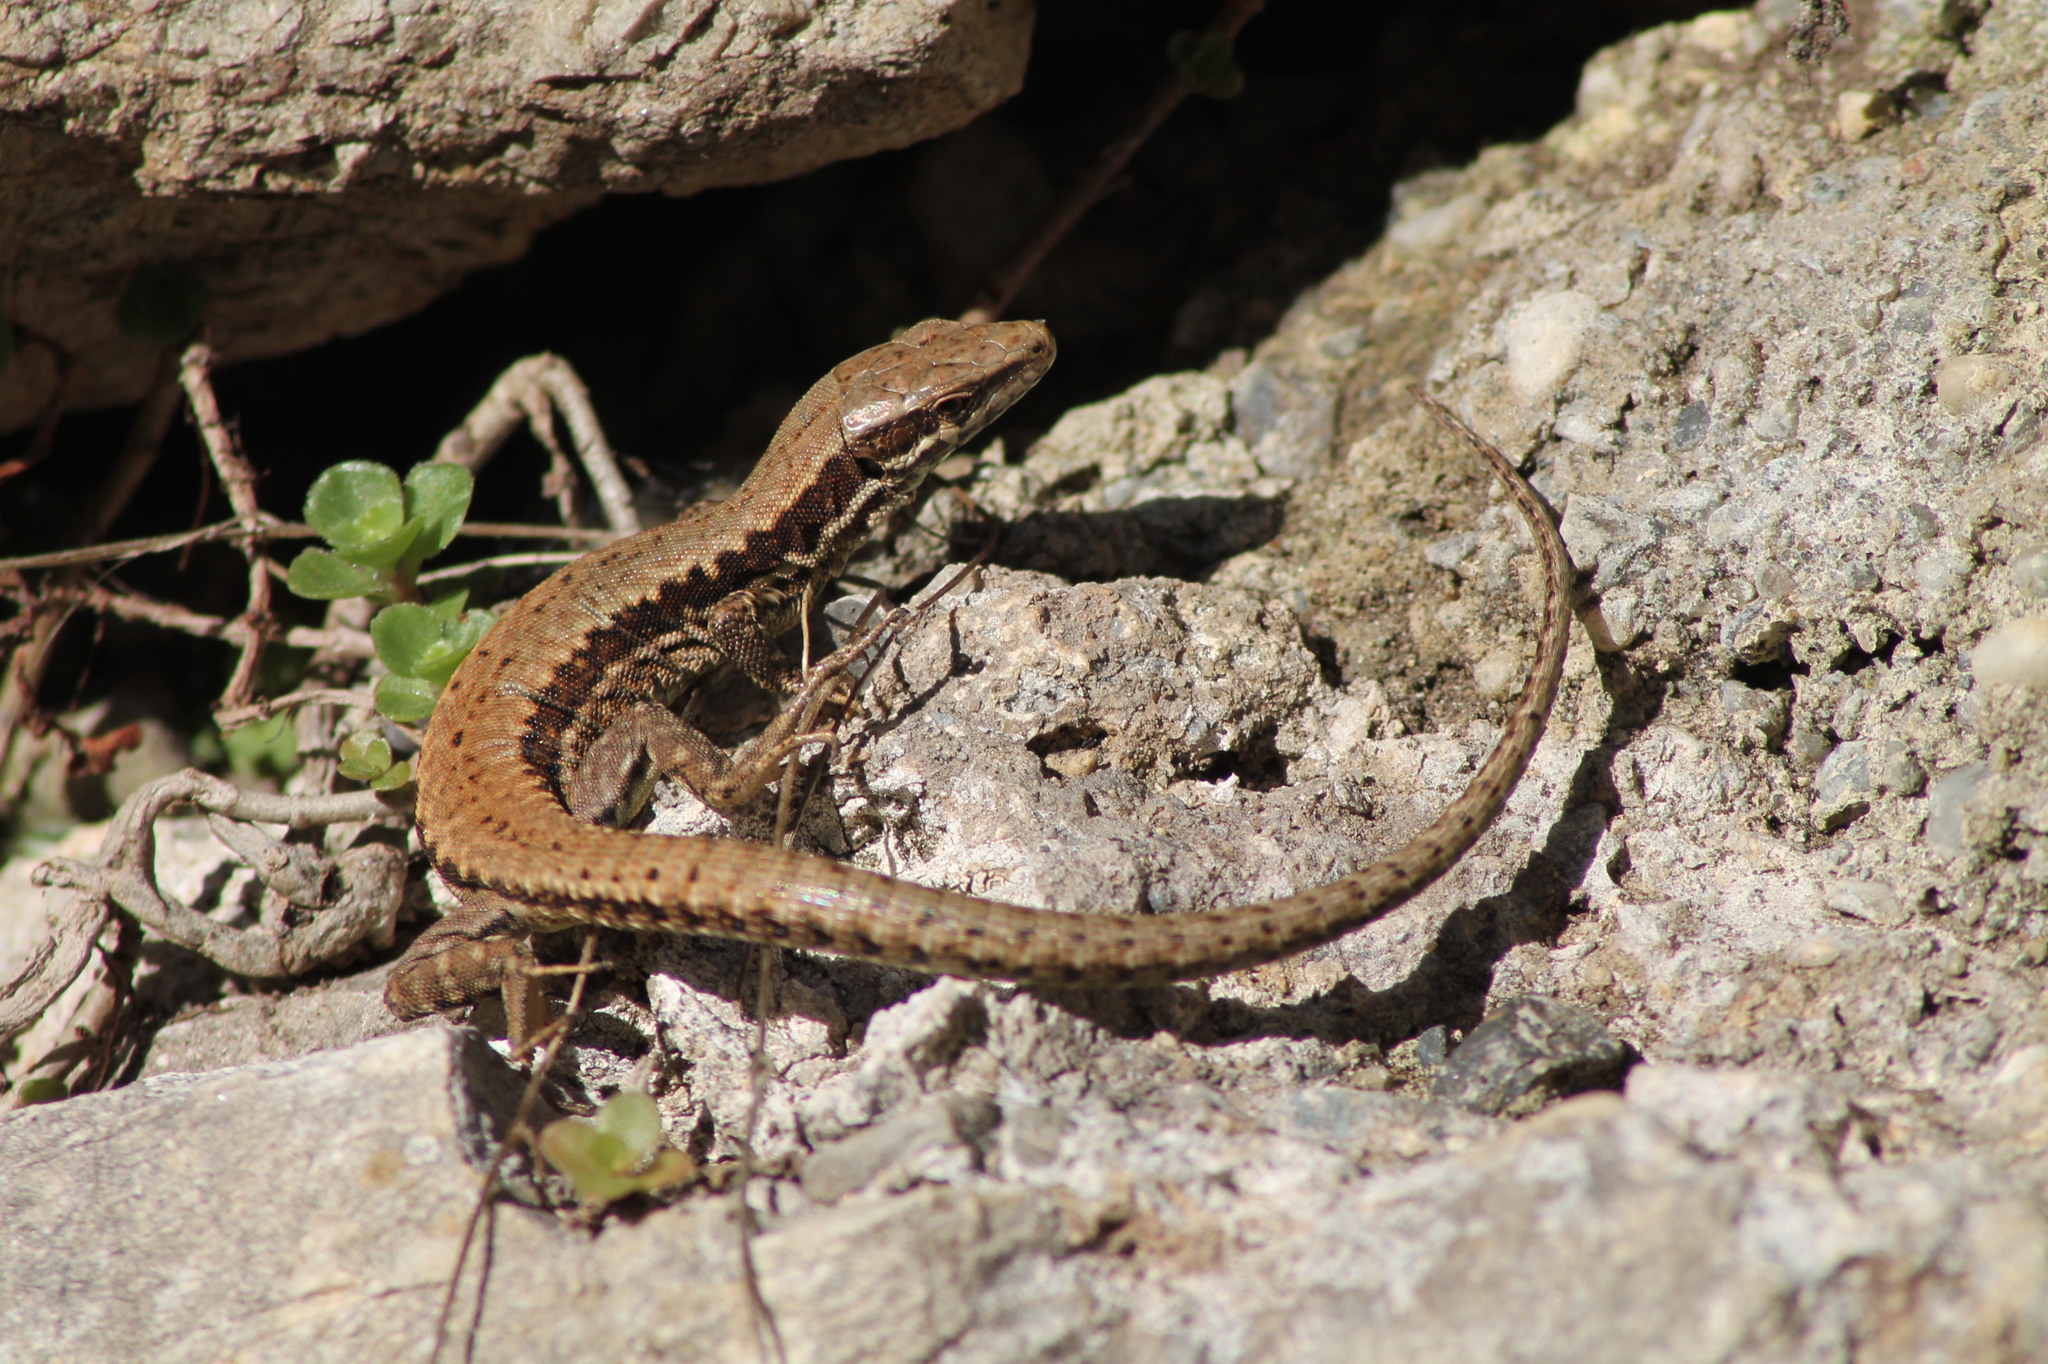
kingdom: Animalia
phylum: Chordata
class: Squamata
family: Lacertidae
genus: Podarcis
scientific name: Podarcis muralis
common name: Common wall lizard
